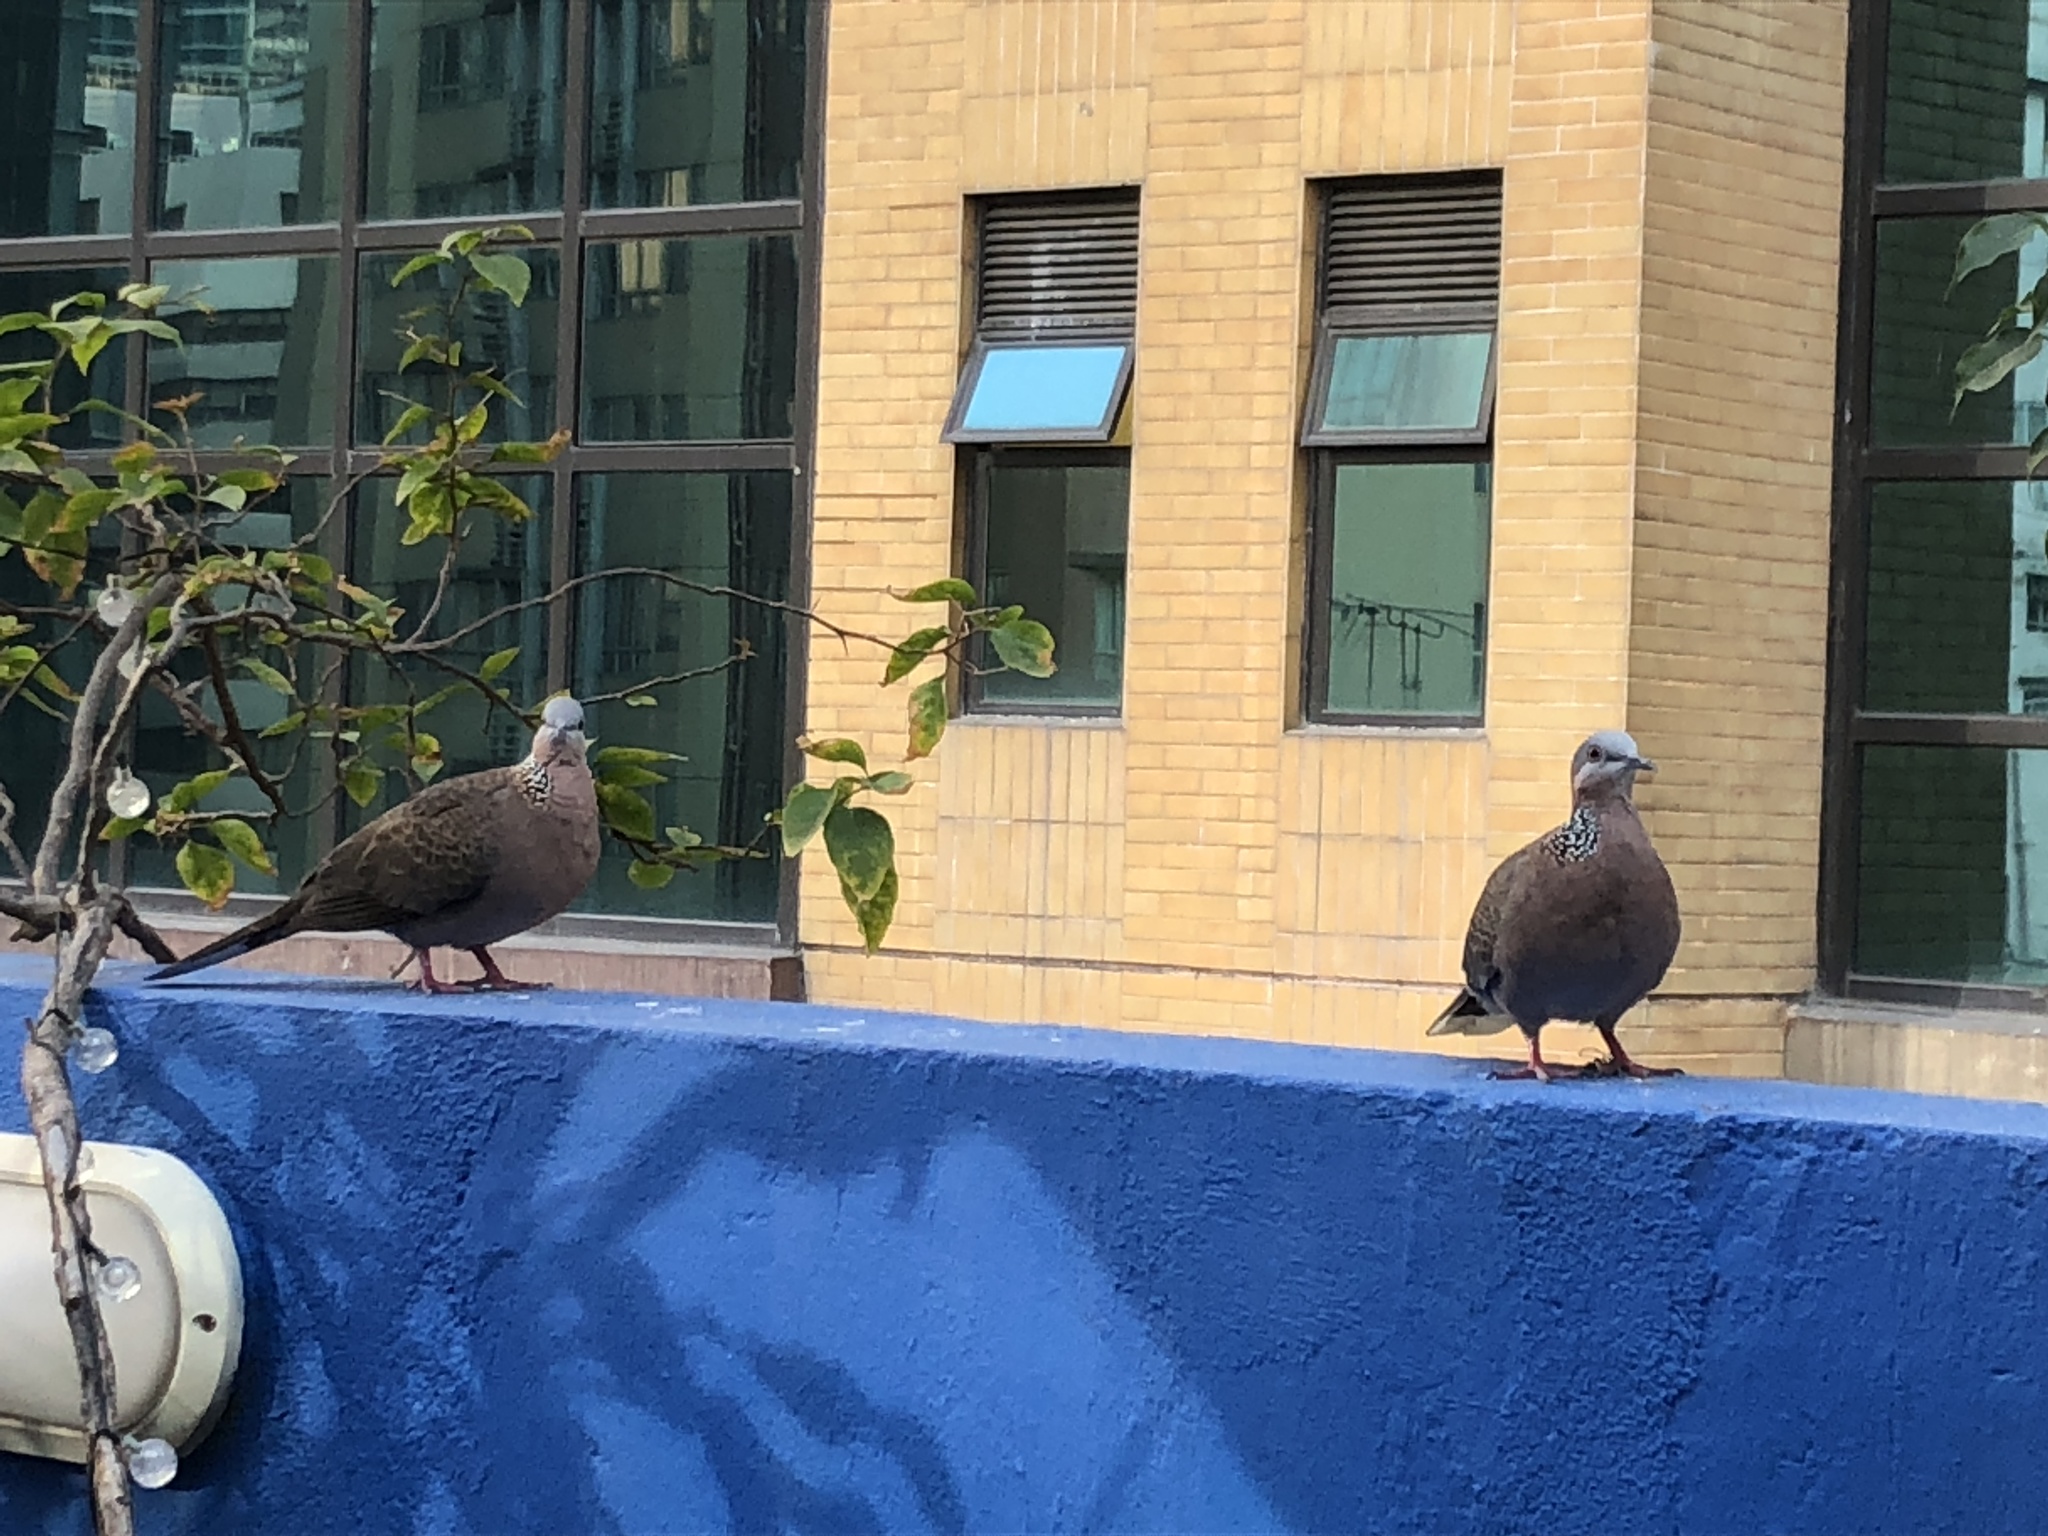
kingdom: Animalia
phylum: Chordata
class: Aves
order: Columbiformes
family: Columbidae
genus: Spilopelia
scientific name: Spilopelia chinensis
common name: Spotted dove
